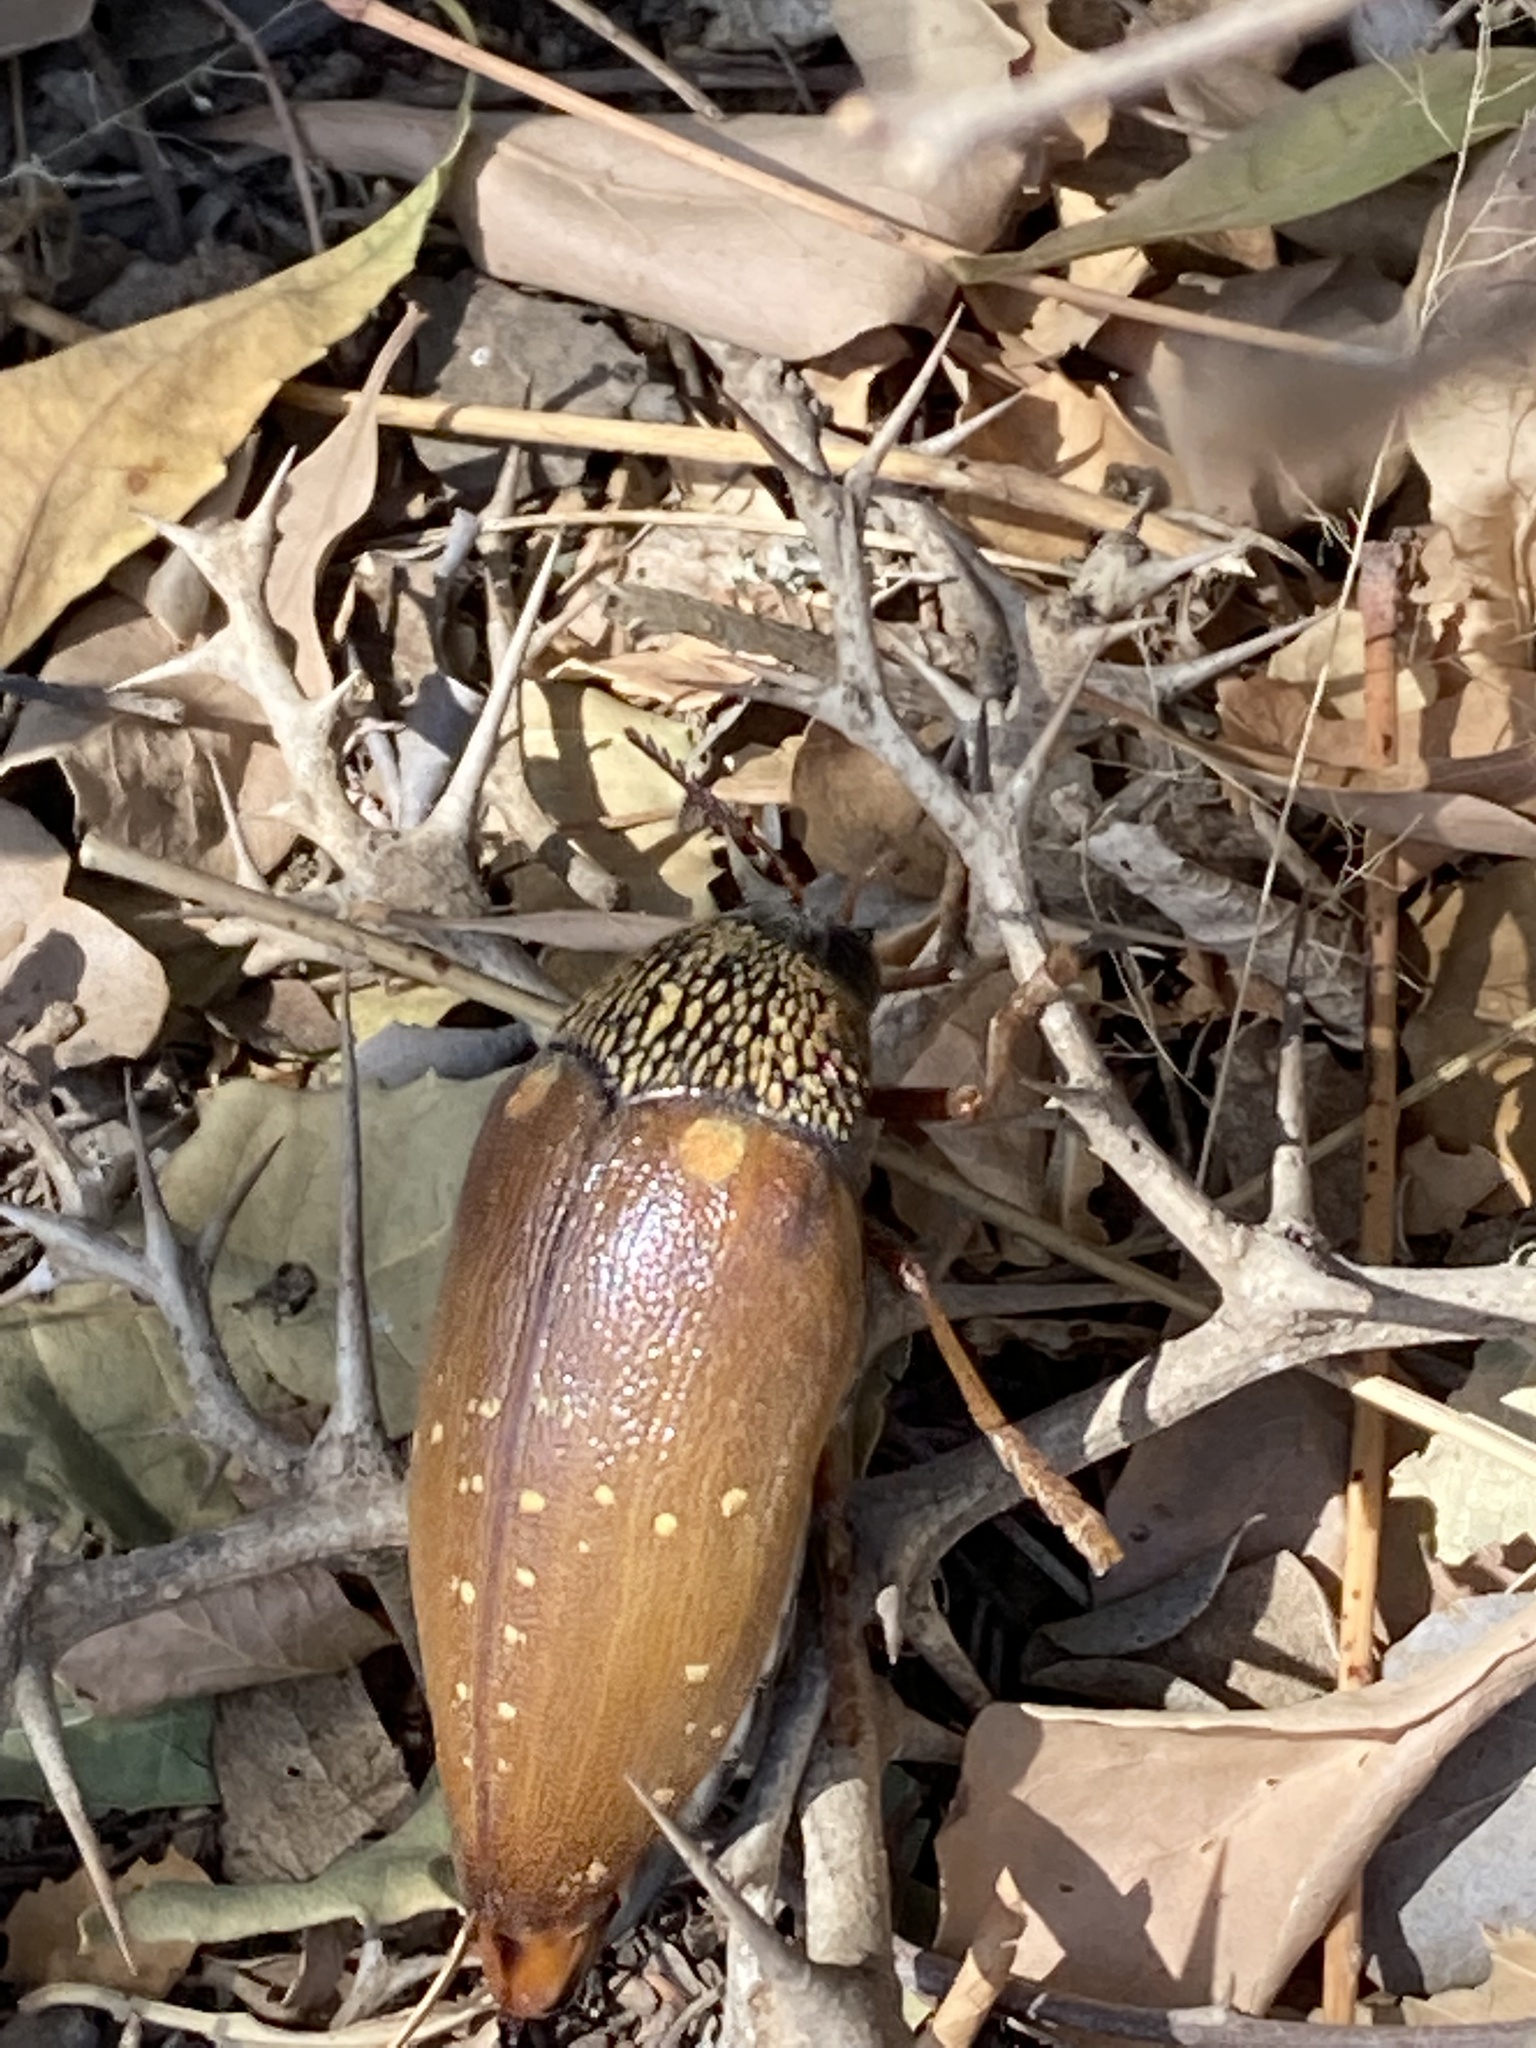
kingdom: Animalia
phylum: Arthropoda
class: Insecta
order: Coleoptera
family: Buprestidae
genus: Sternocera
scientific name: Sternocera castanea
